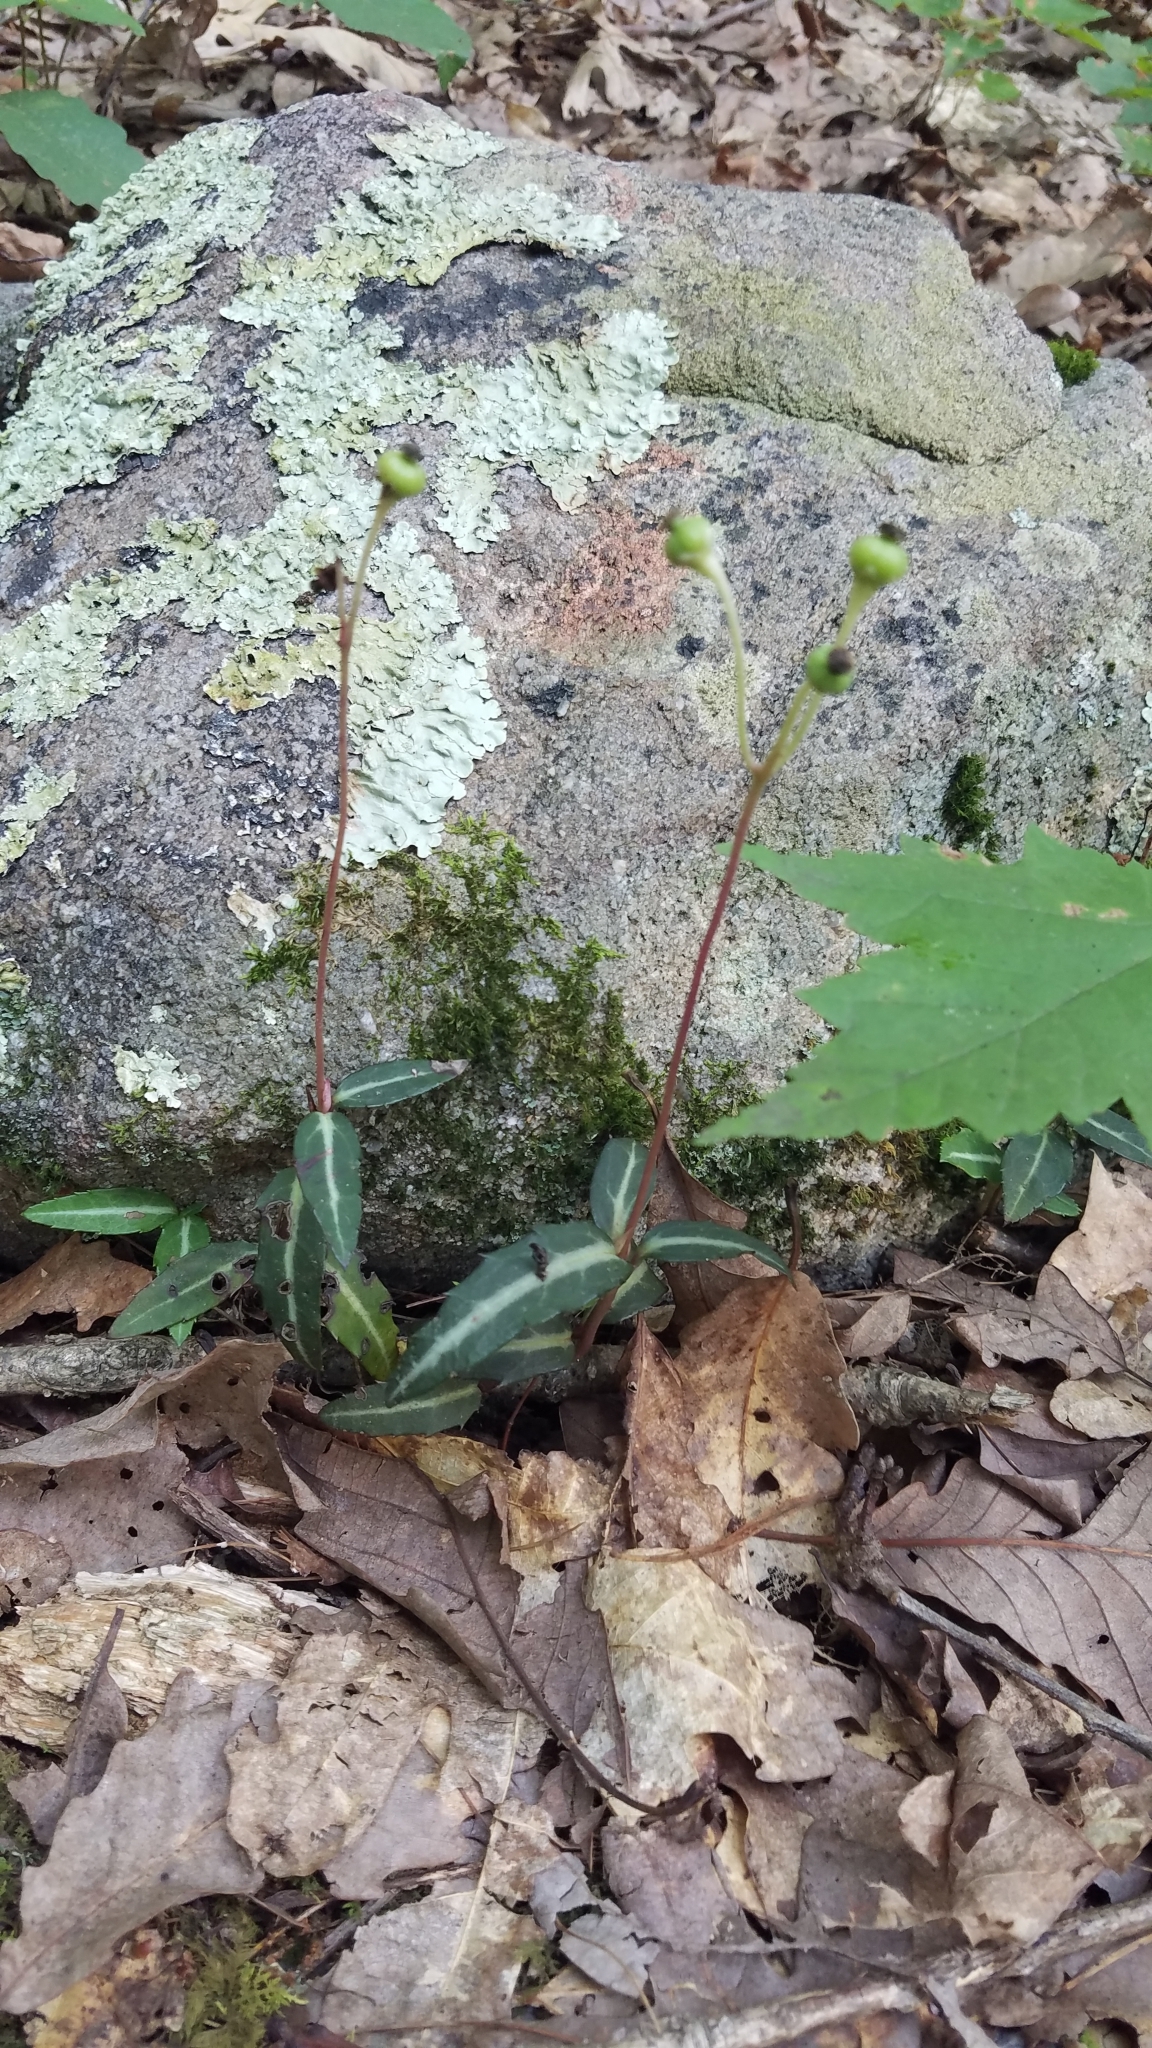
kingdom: Plantae
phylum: Tracheophyta
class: Magnoliopsida
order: Ericales
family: Ericaceae
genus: Chimaphila
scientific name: Chimaphila maculata
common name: Spotted pipsissewa
